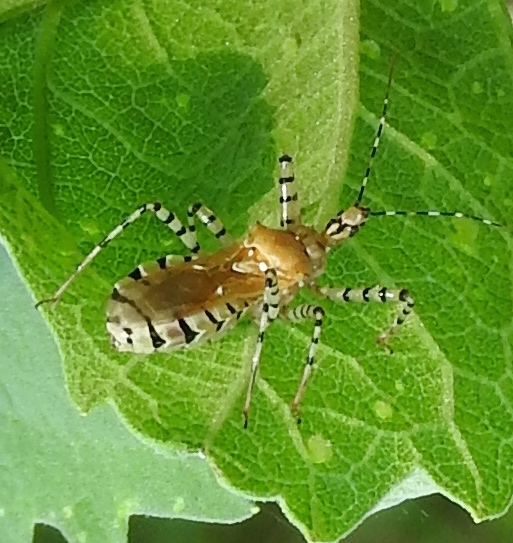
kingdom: Animalia
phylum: Arthropoda
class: Insecta
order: Hemiptera
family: Reduviidae
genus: Pselliopus
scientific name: Pselliopus
